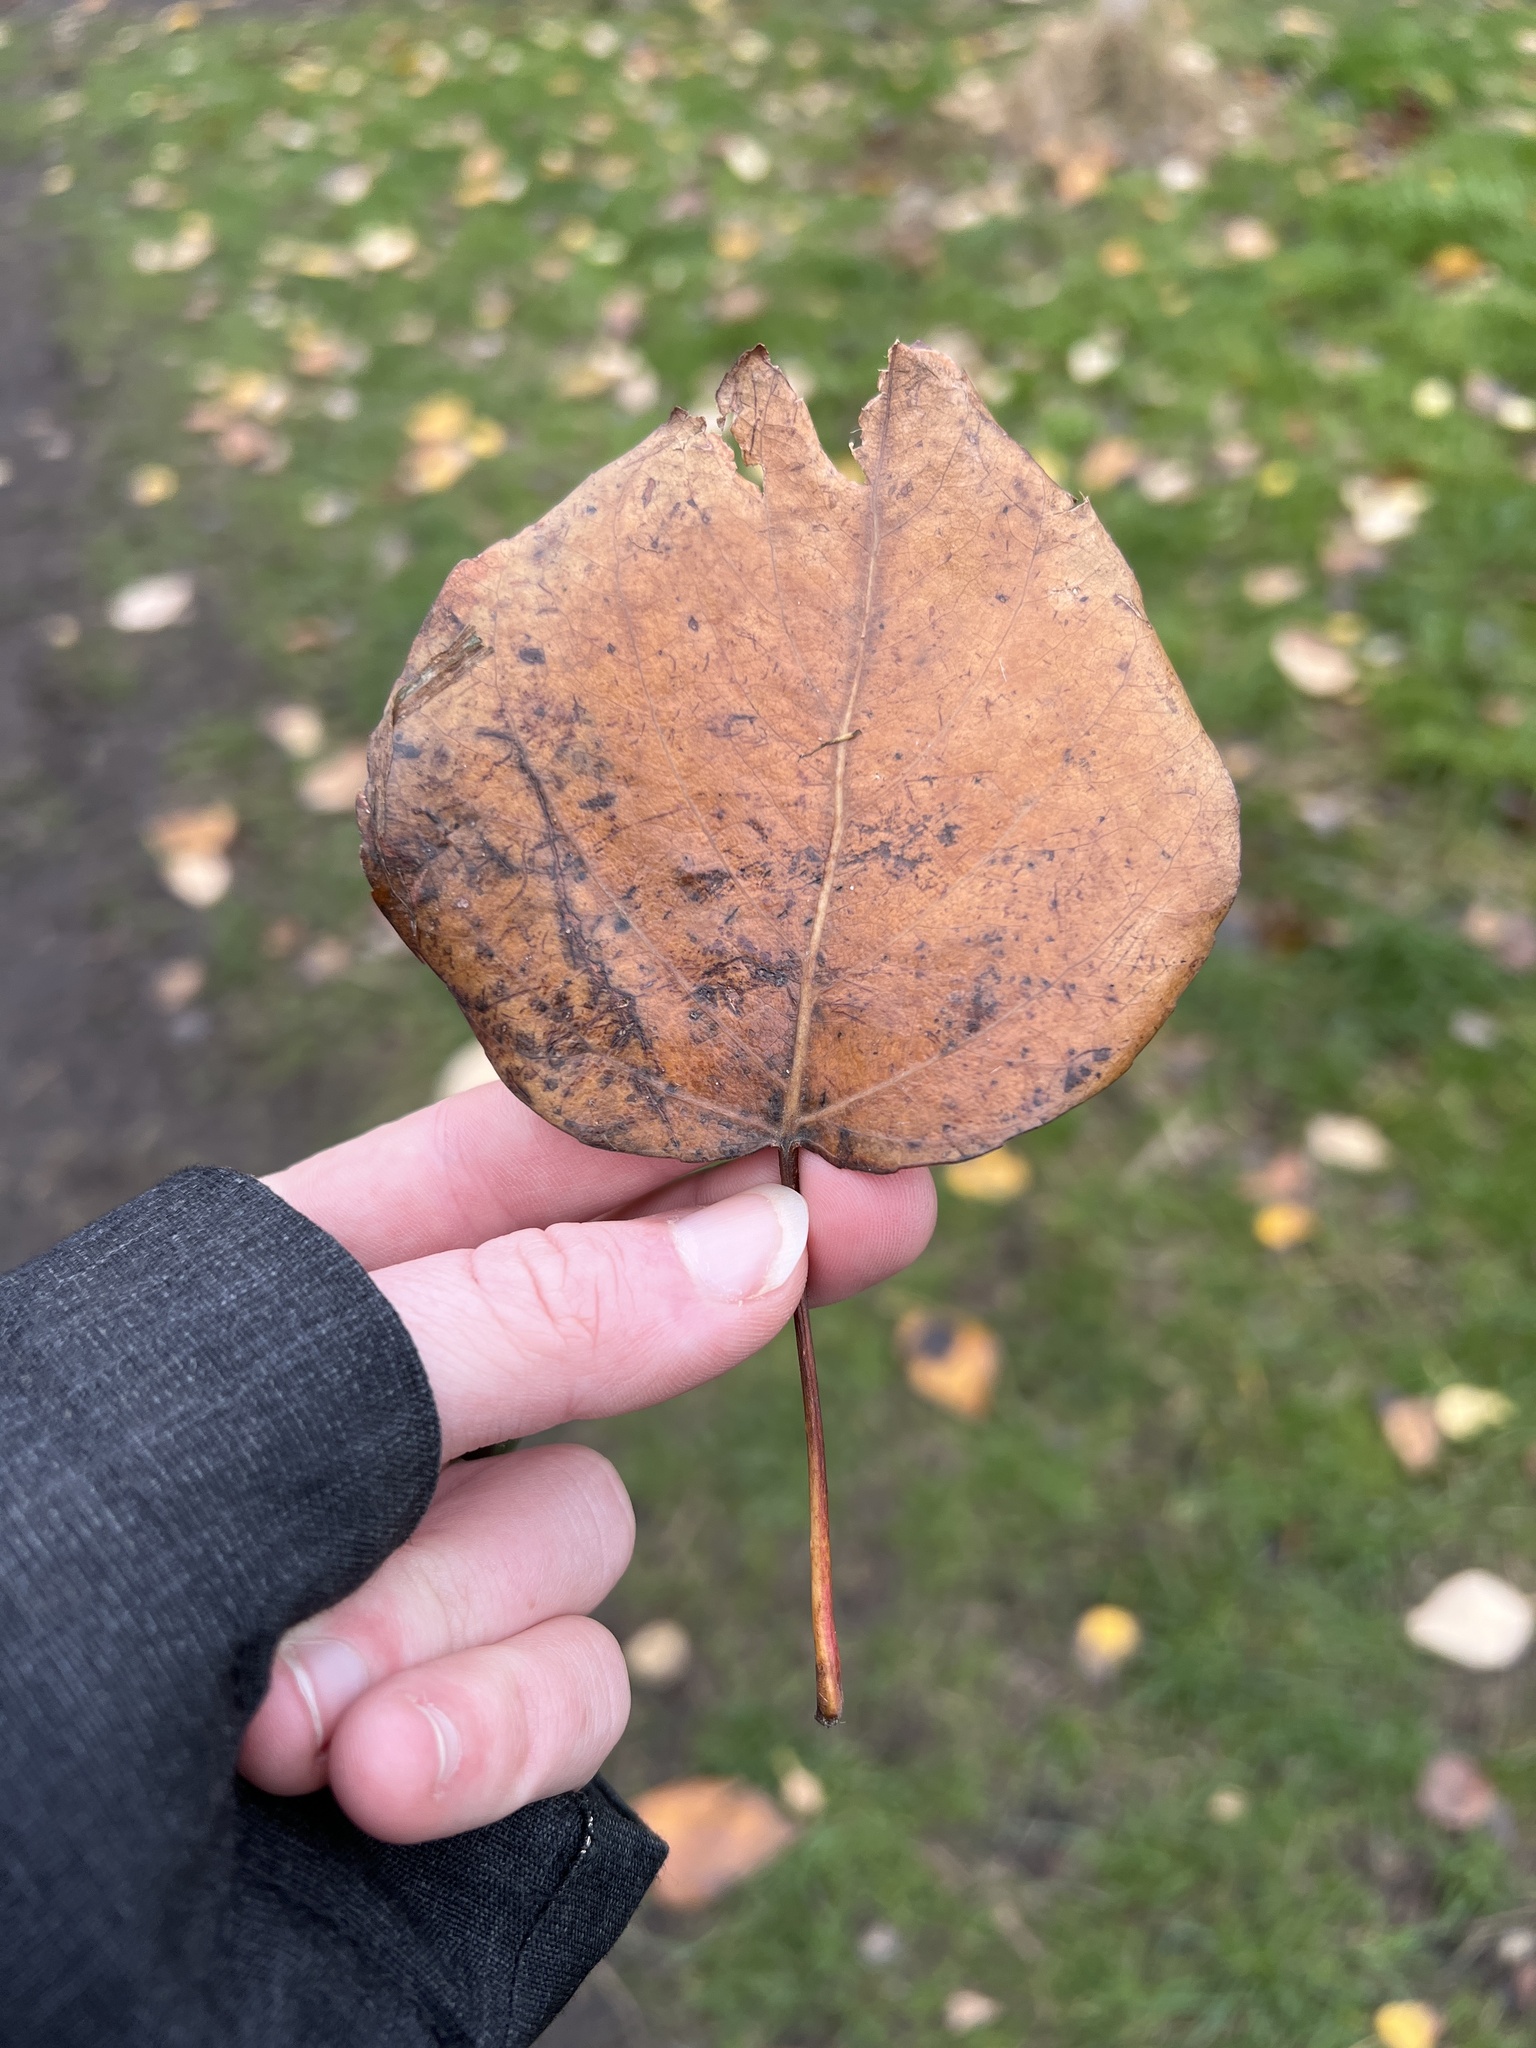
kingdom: Plantae
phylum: Tracheophyta
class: Magnoliopsida
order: Malpighiales
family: Salicaceae
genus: Populus
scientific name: Populus trichocarpa
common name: Black cottonwood
